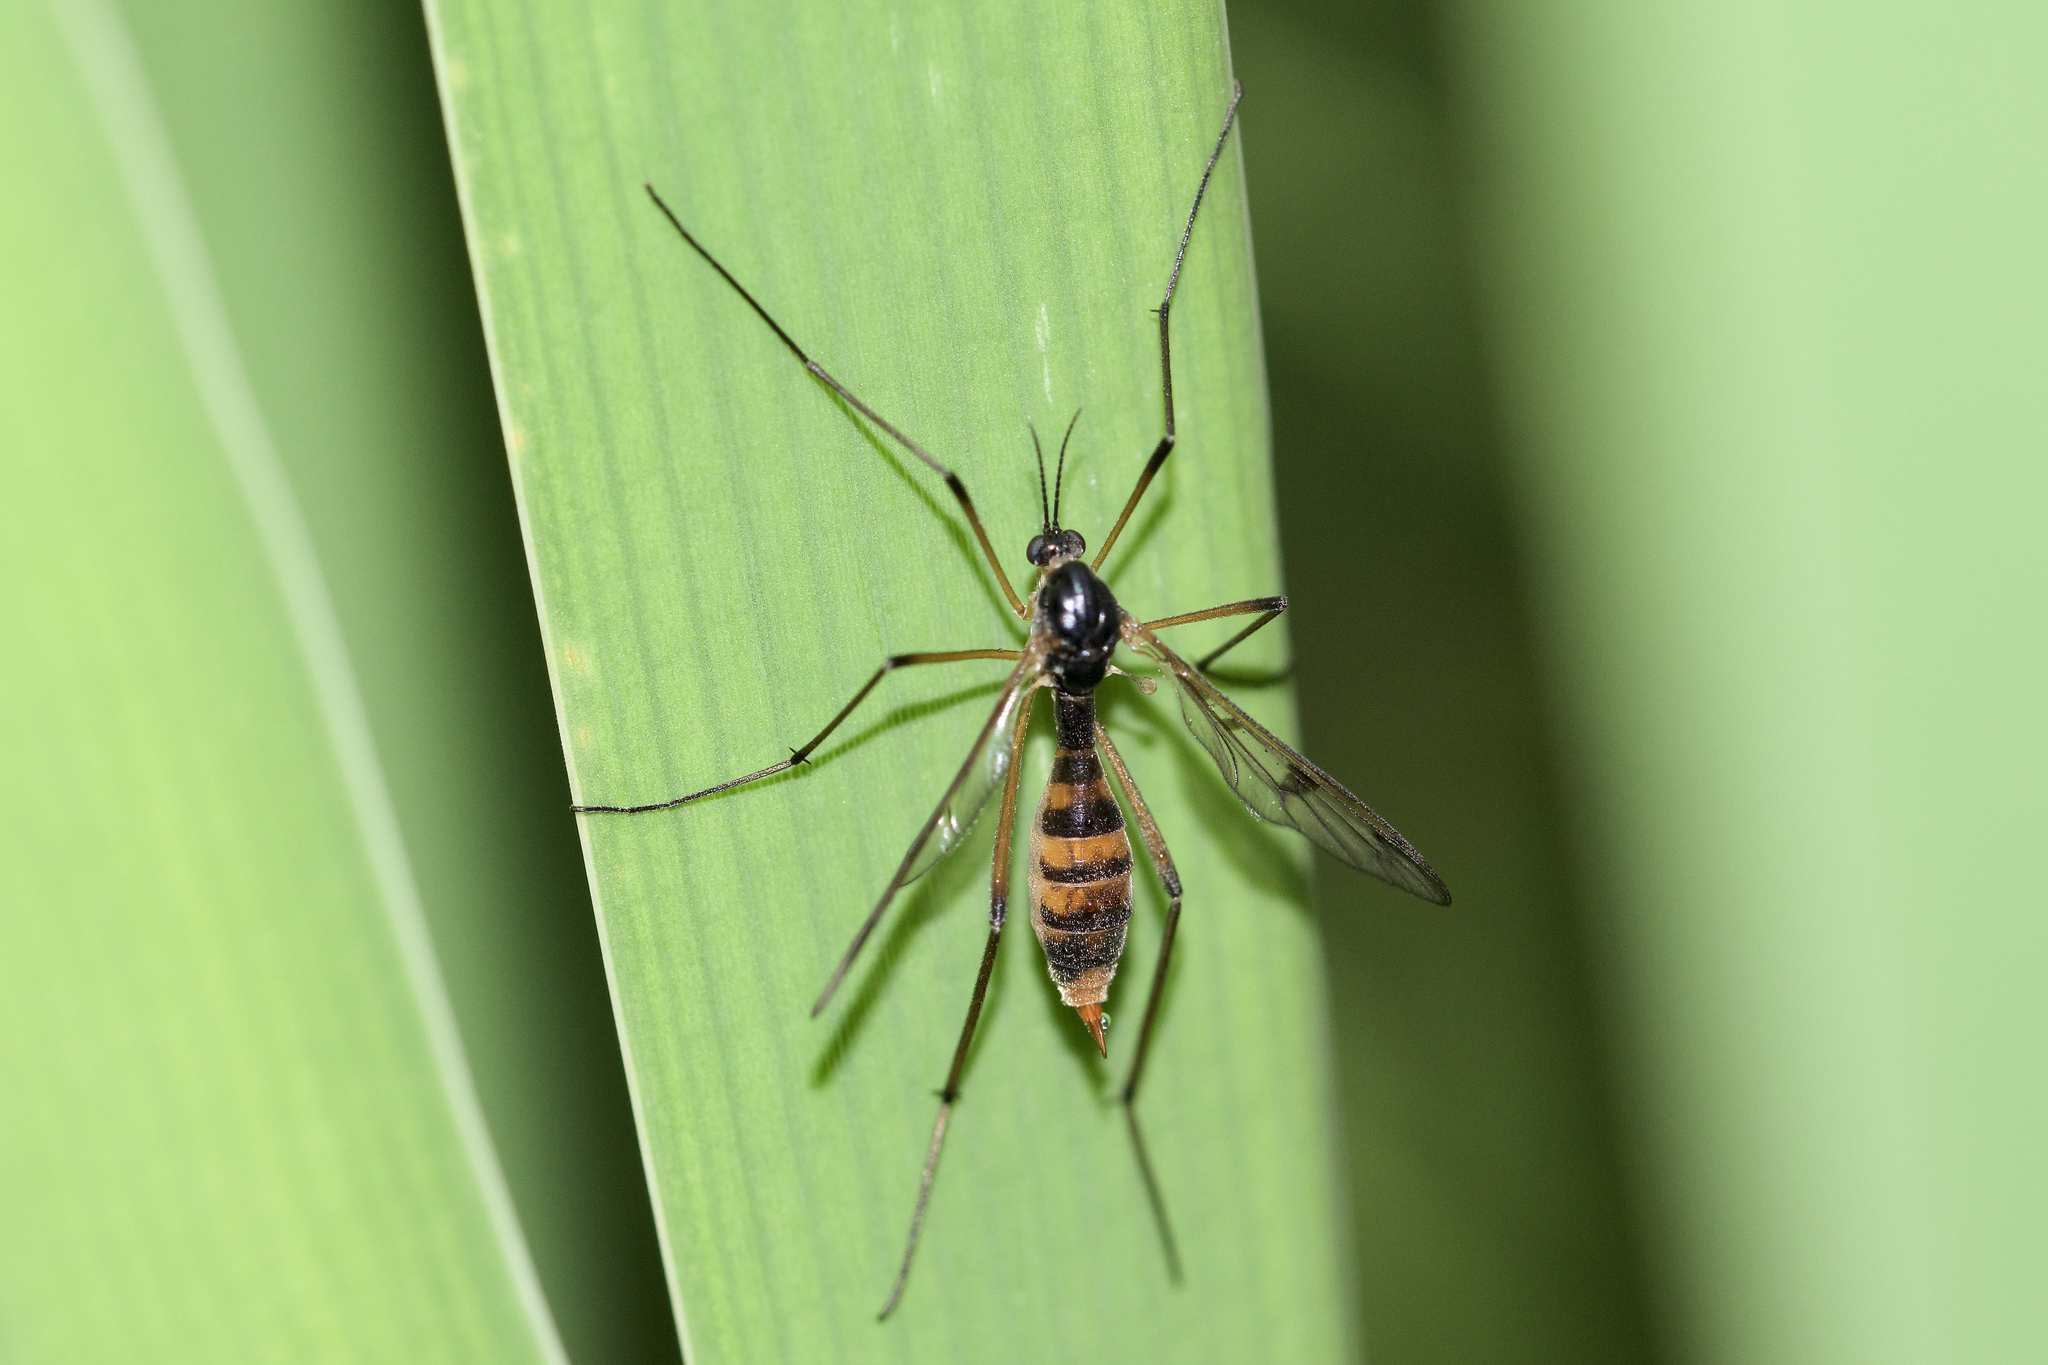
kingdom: Animalia
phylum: Arthropoda
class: Insecta
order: Diptera
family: Ptychopteridae
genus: Ptychoptera
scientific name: Ptychoptera quadrifasciata
